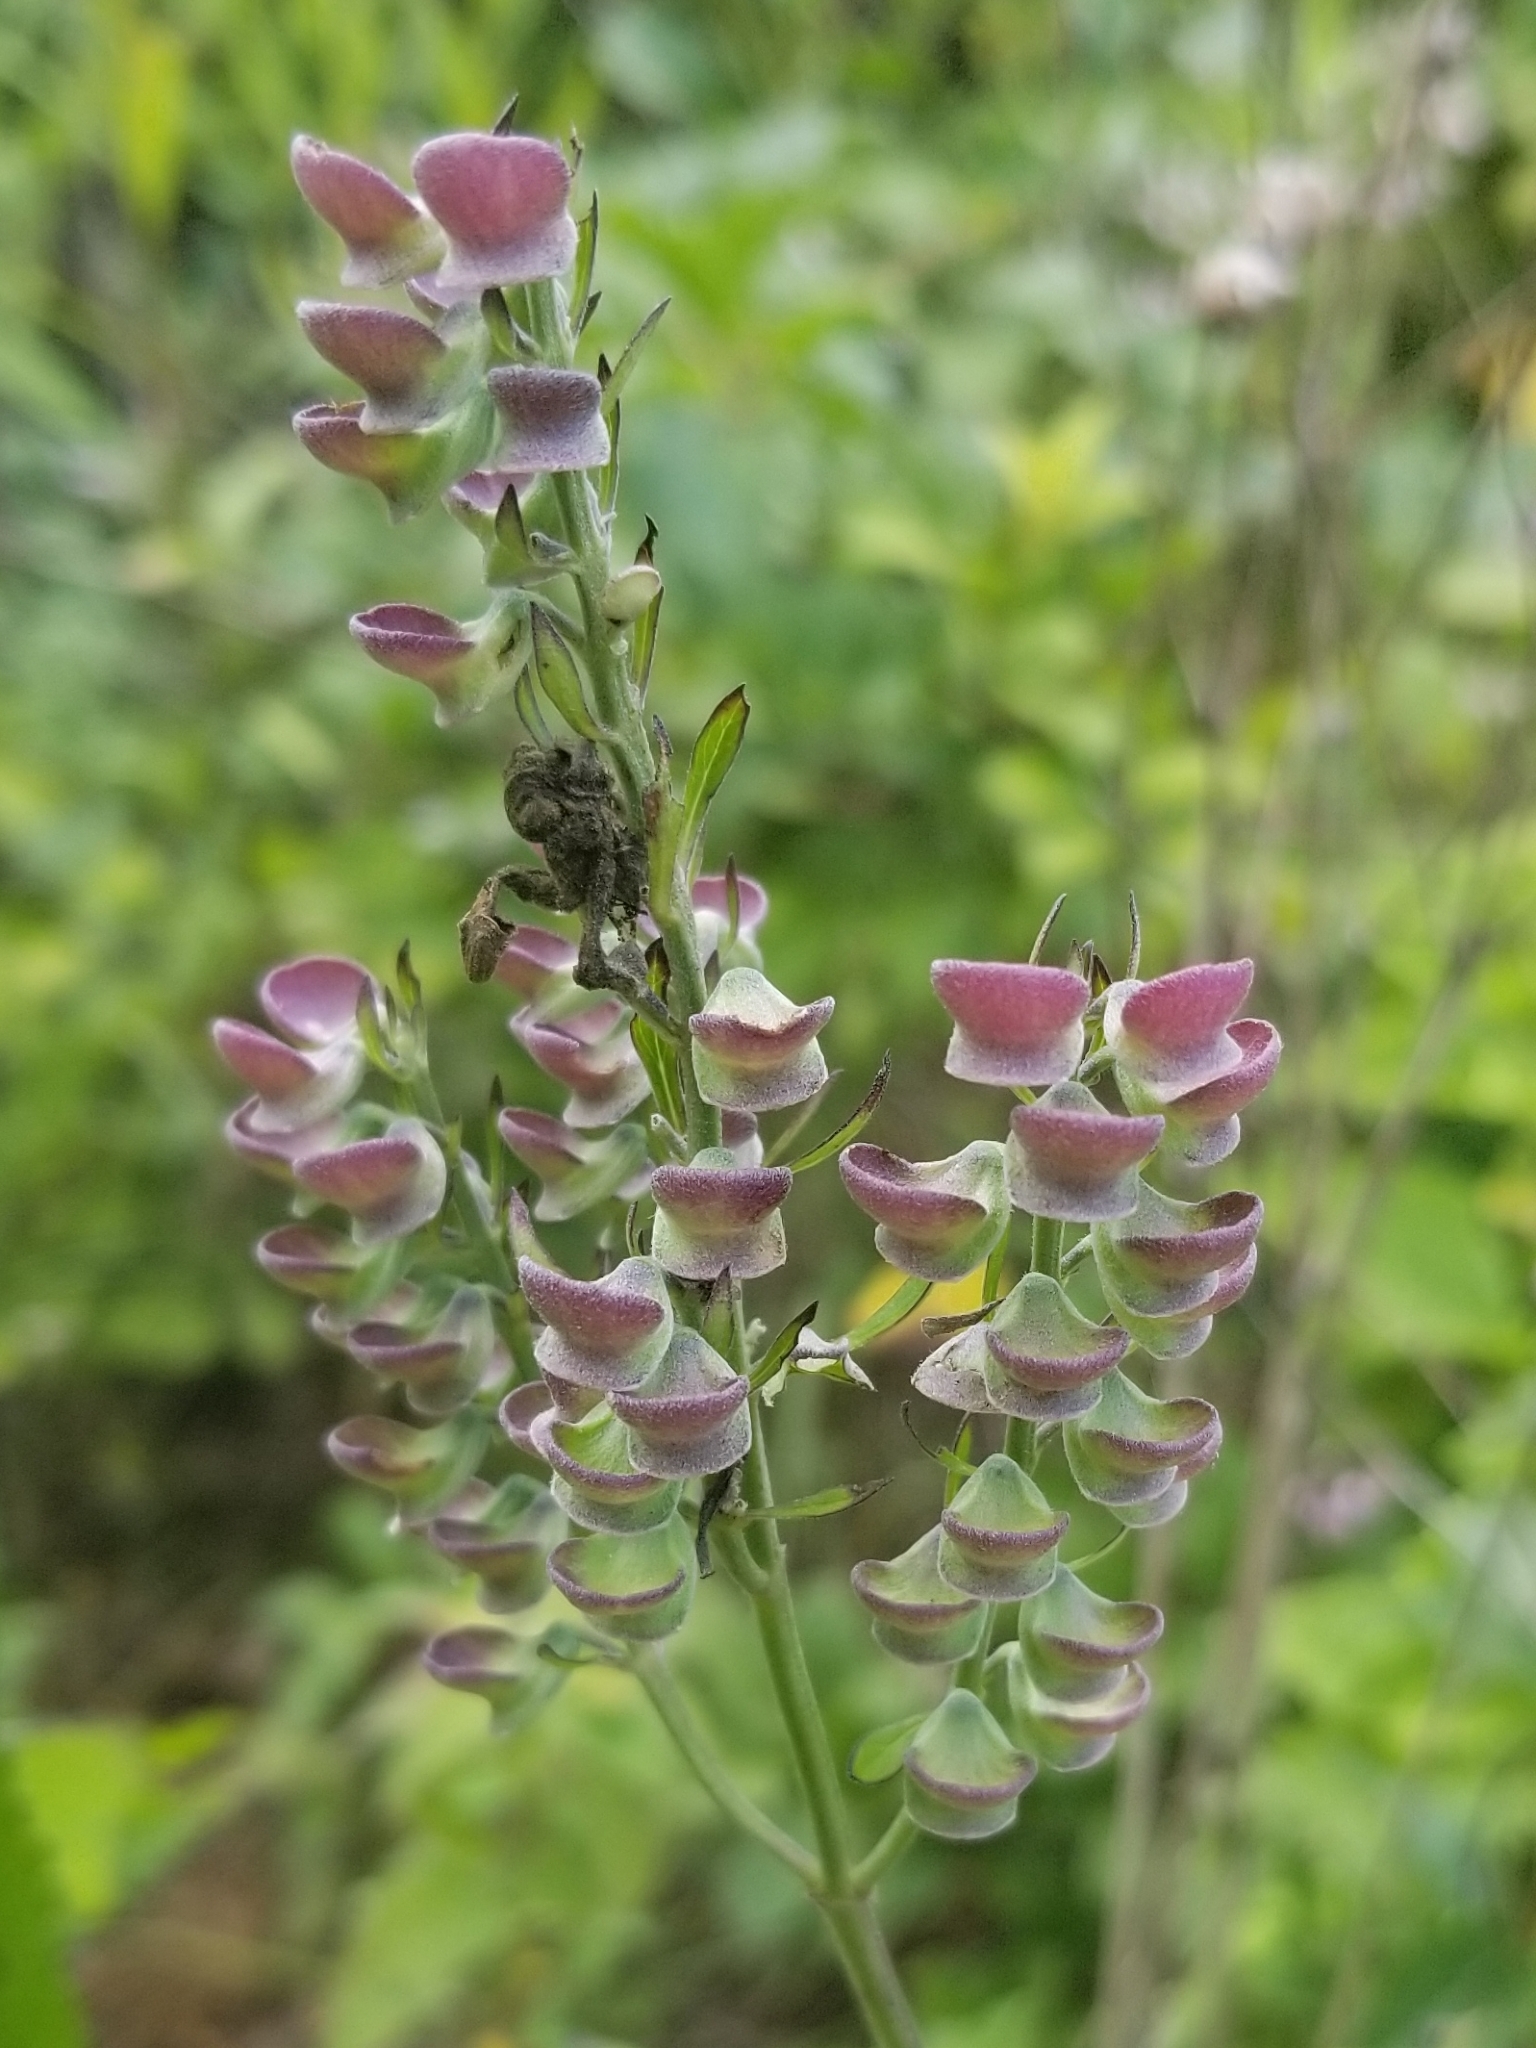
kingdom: Plantae
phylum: Tracheophyta
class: Magnoliopsida
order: Lamiales
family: Lamiaceae
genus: Scutellaria
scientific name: Scutellaria incana
